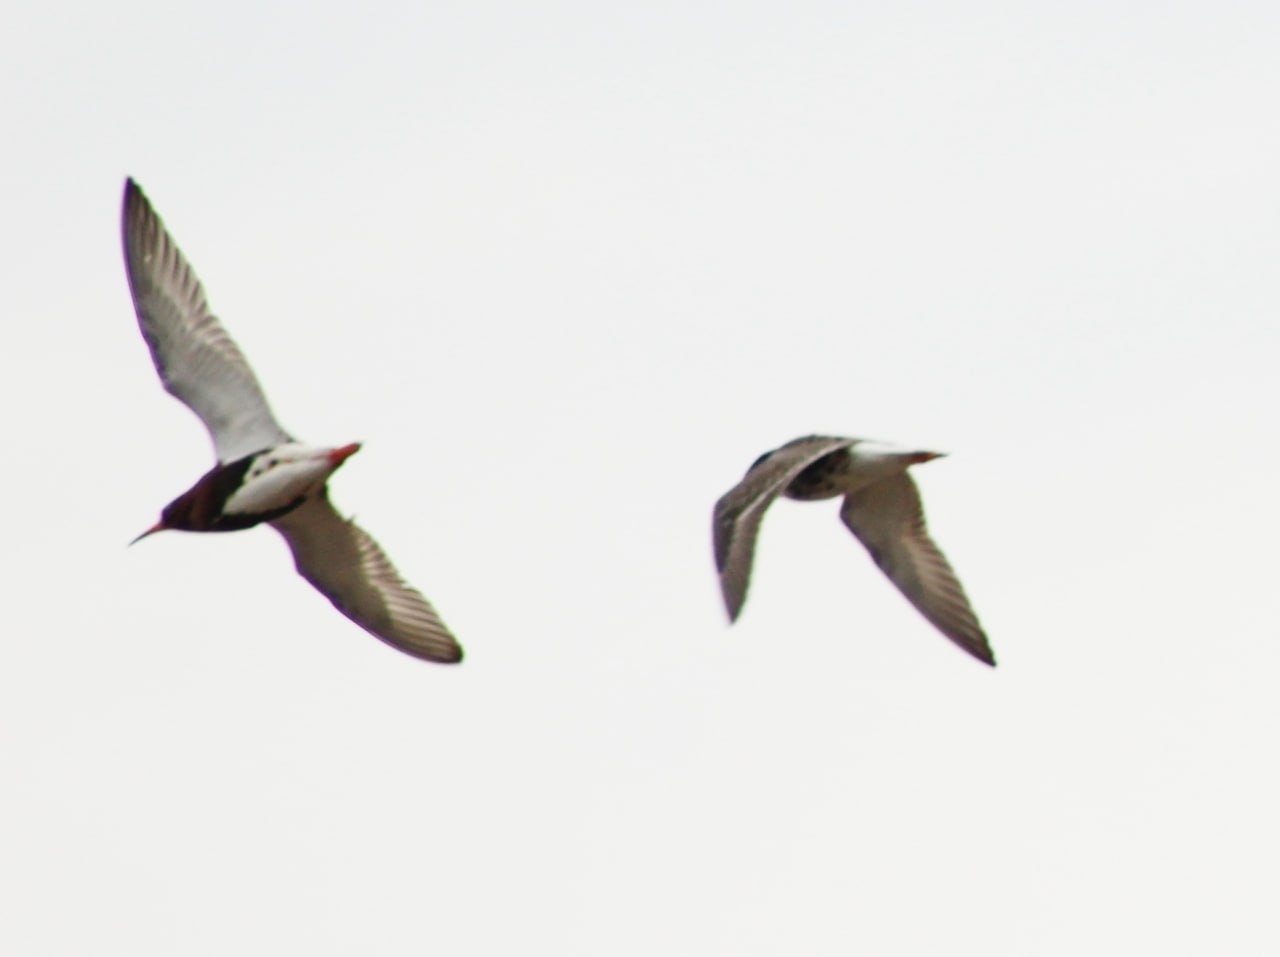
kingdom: Animalia
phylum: Chordata
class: Aves
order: Charadriiformes
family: Scolopacidae
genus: Calidris
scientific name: Calidris pugnax
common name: Ruff
